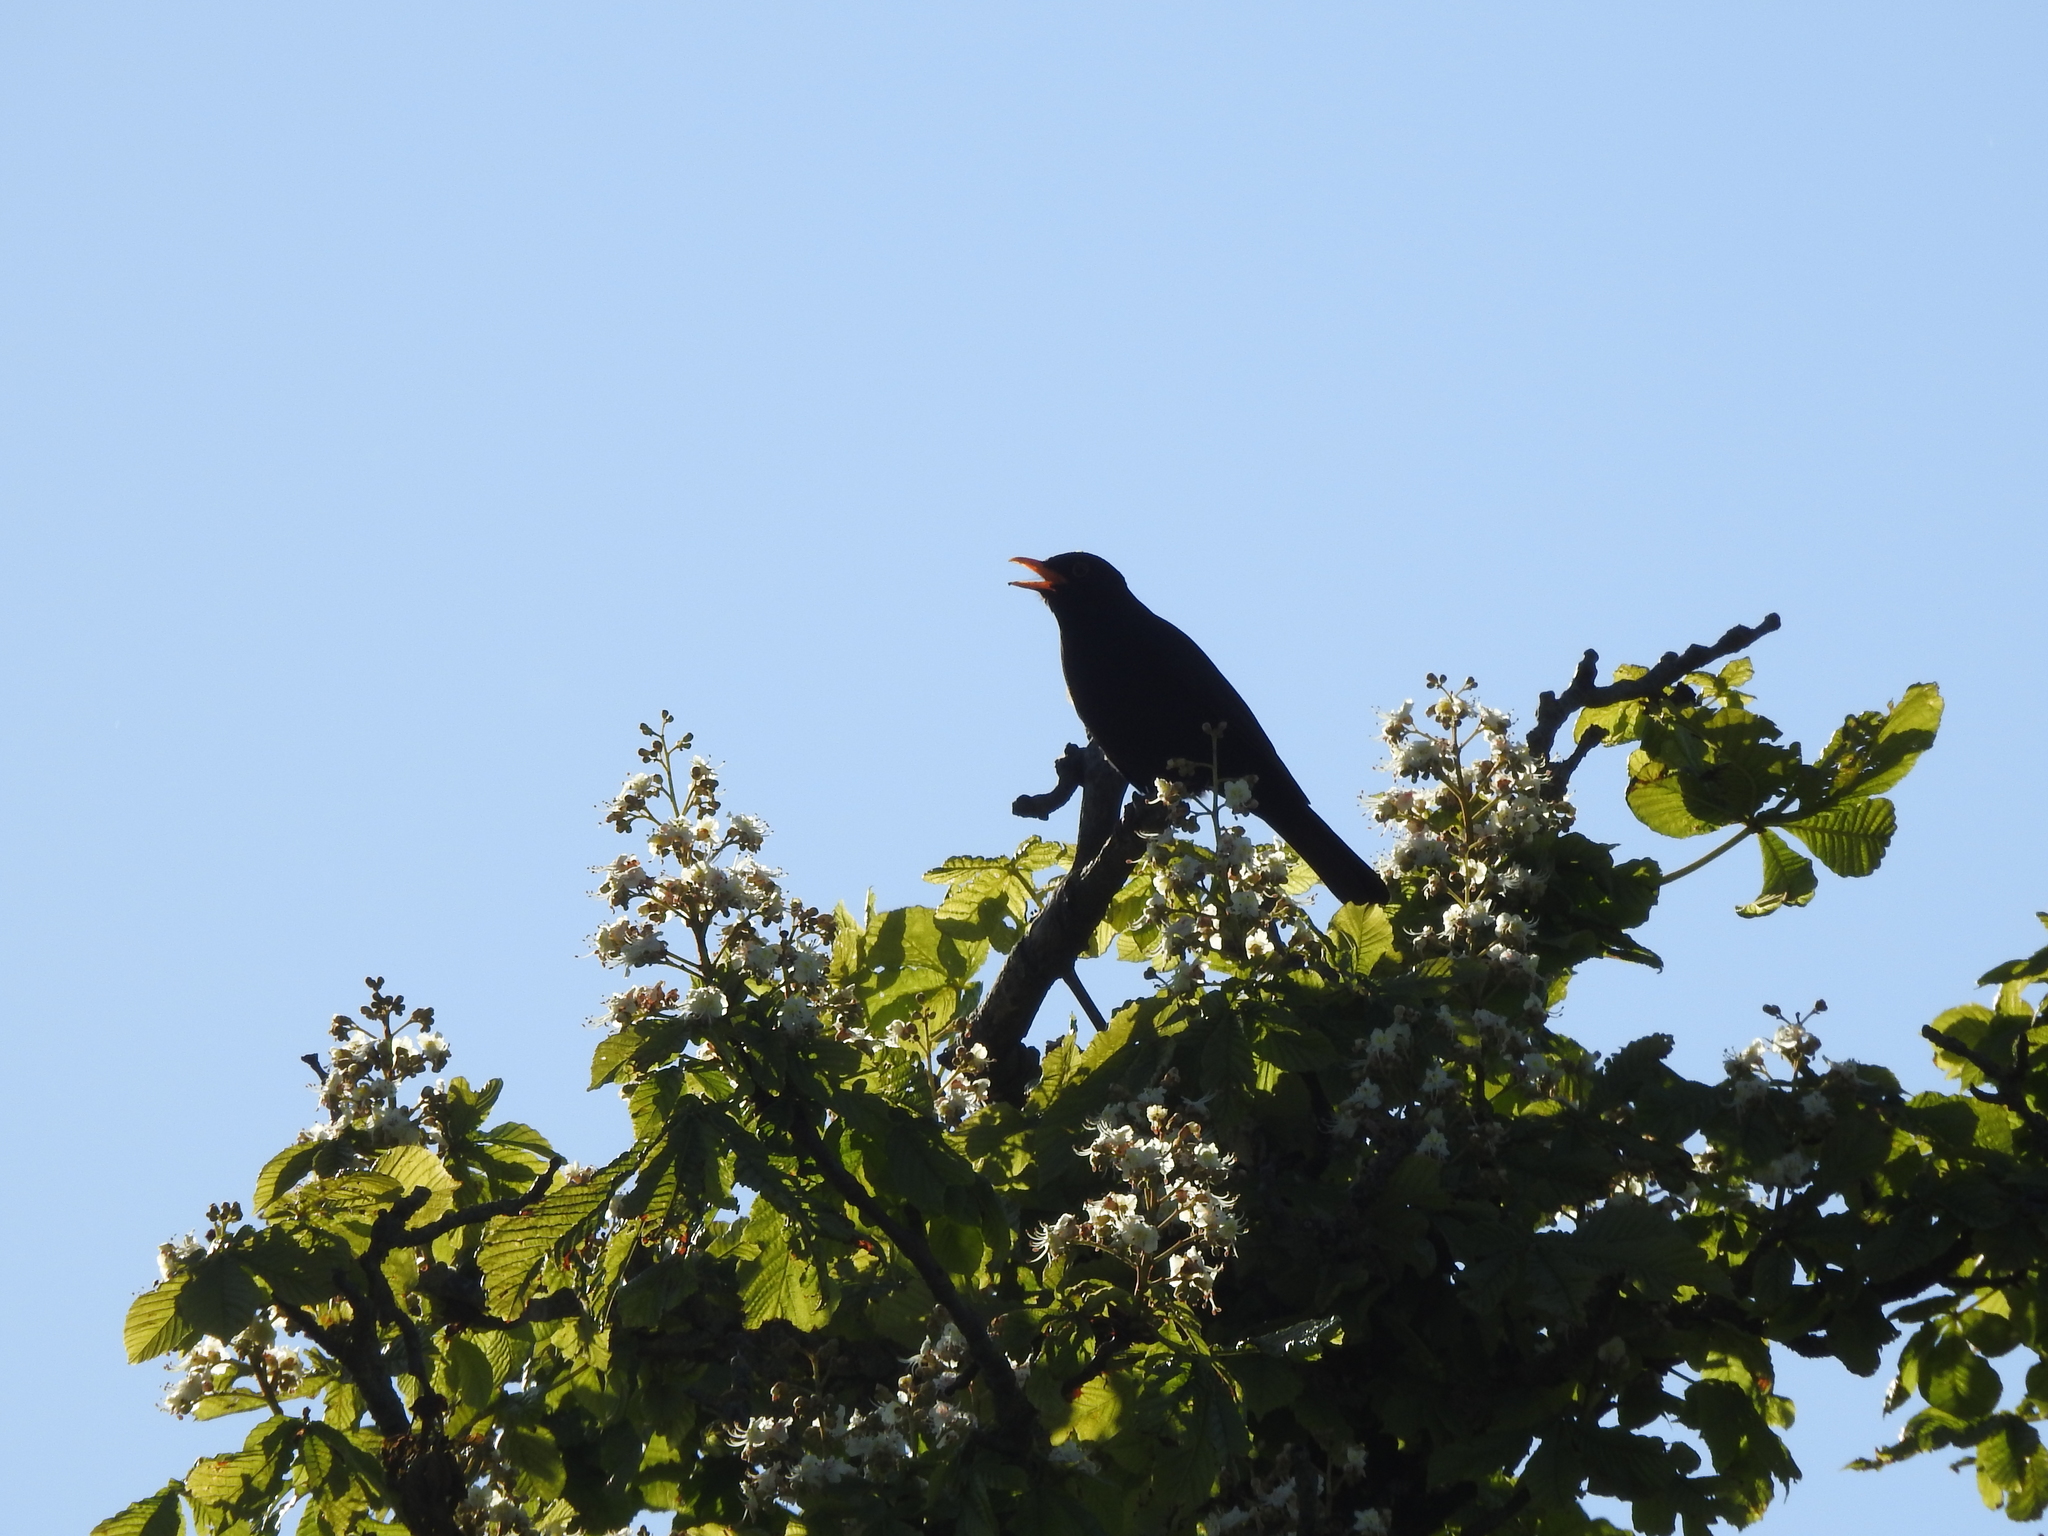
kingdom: Animalia
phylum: Chordata
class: Aves
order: Passeriformes
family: Turdidae
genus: Turdus
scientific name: Turdus merula
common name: Common blackbird
